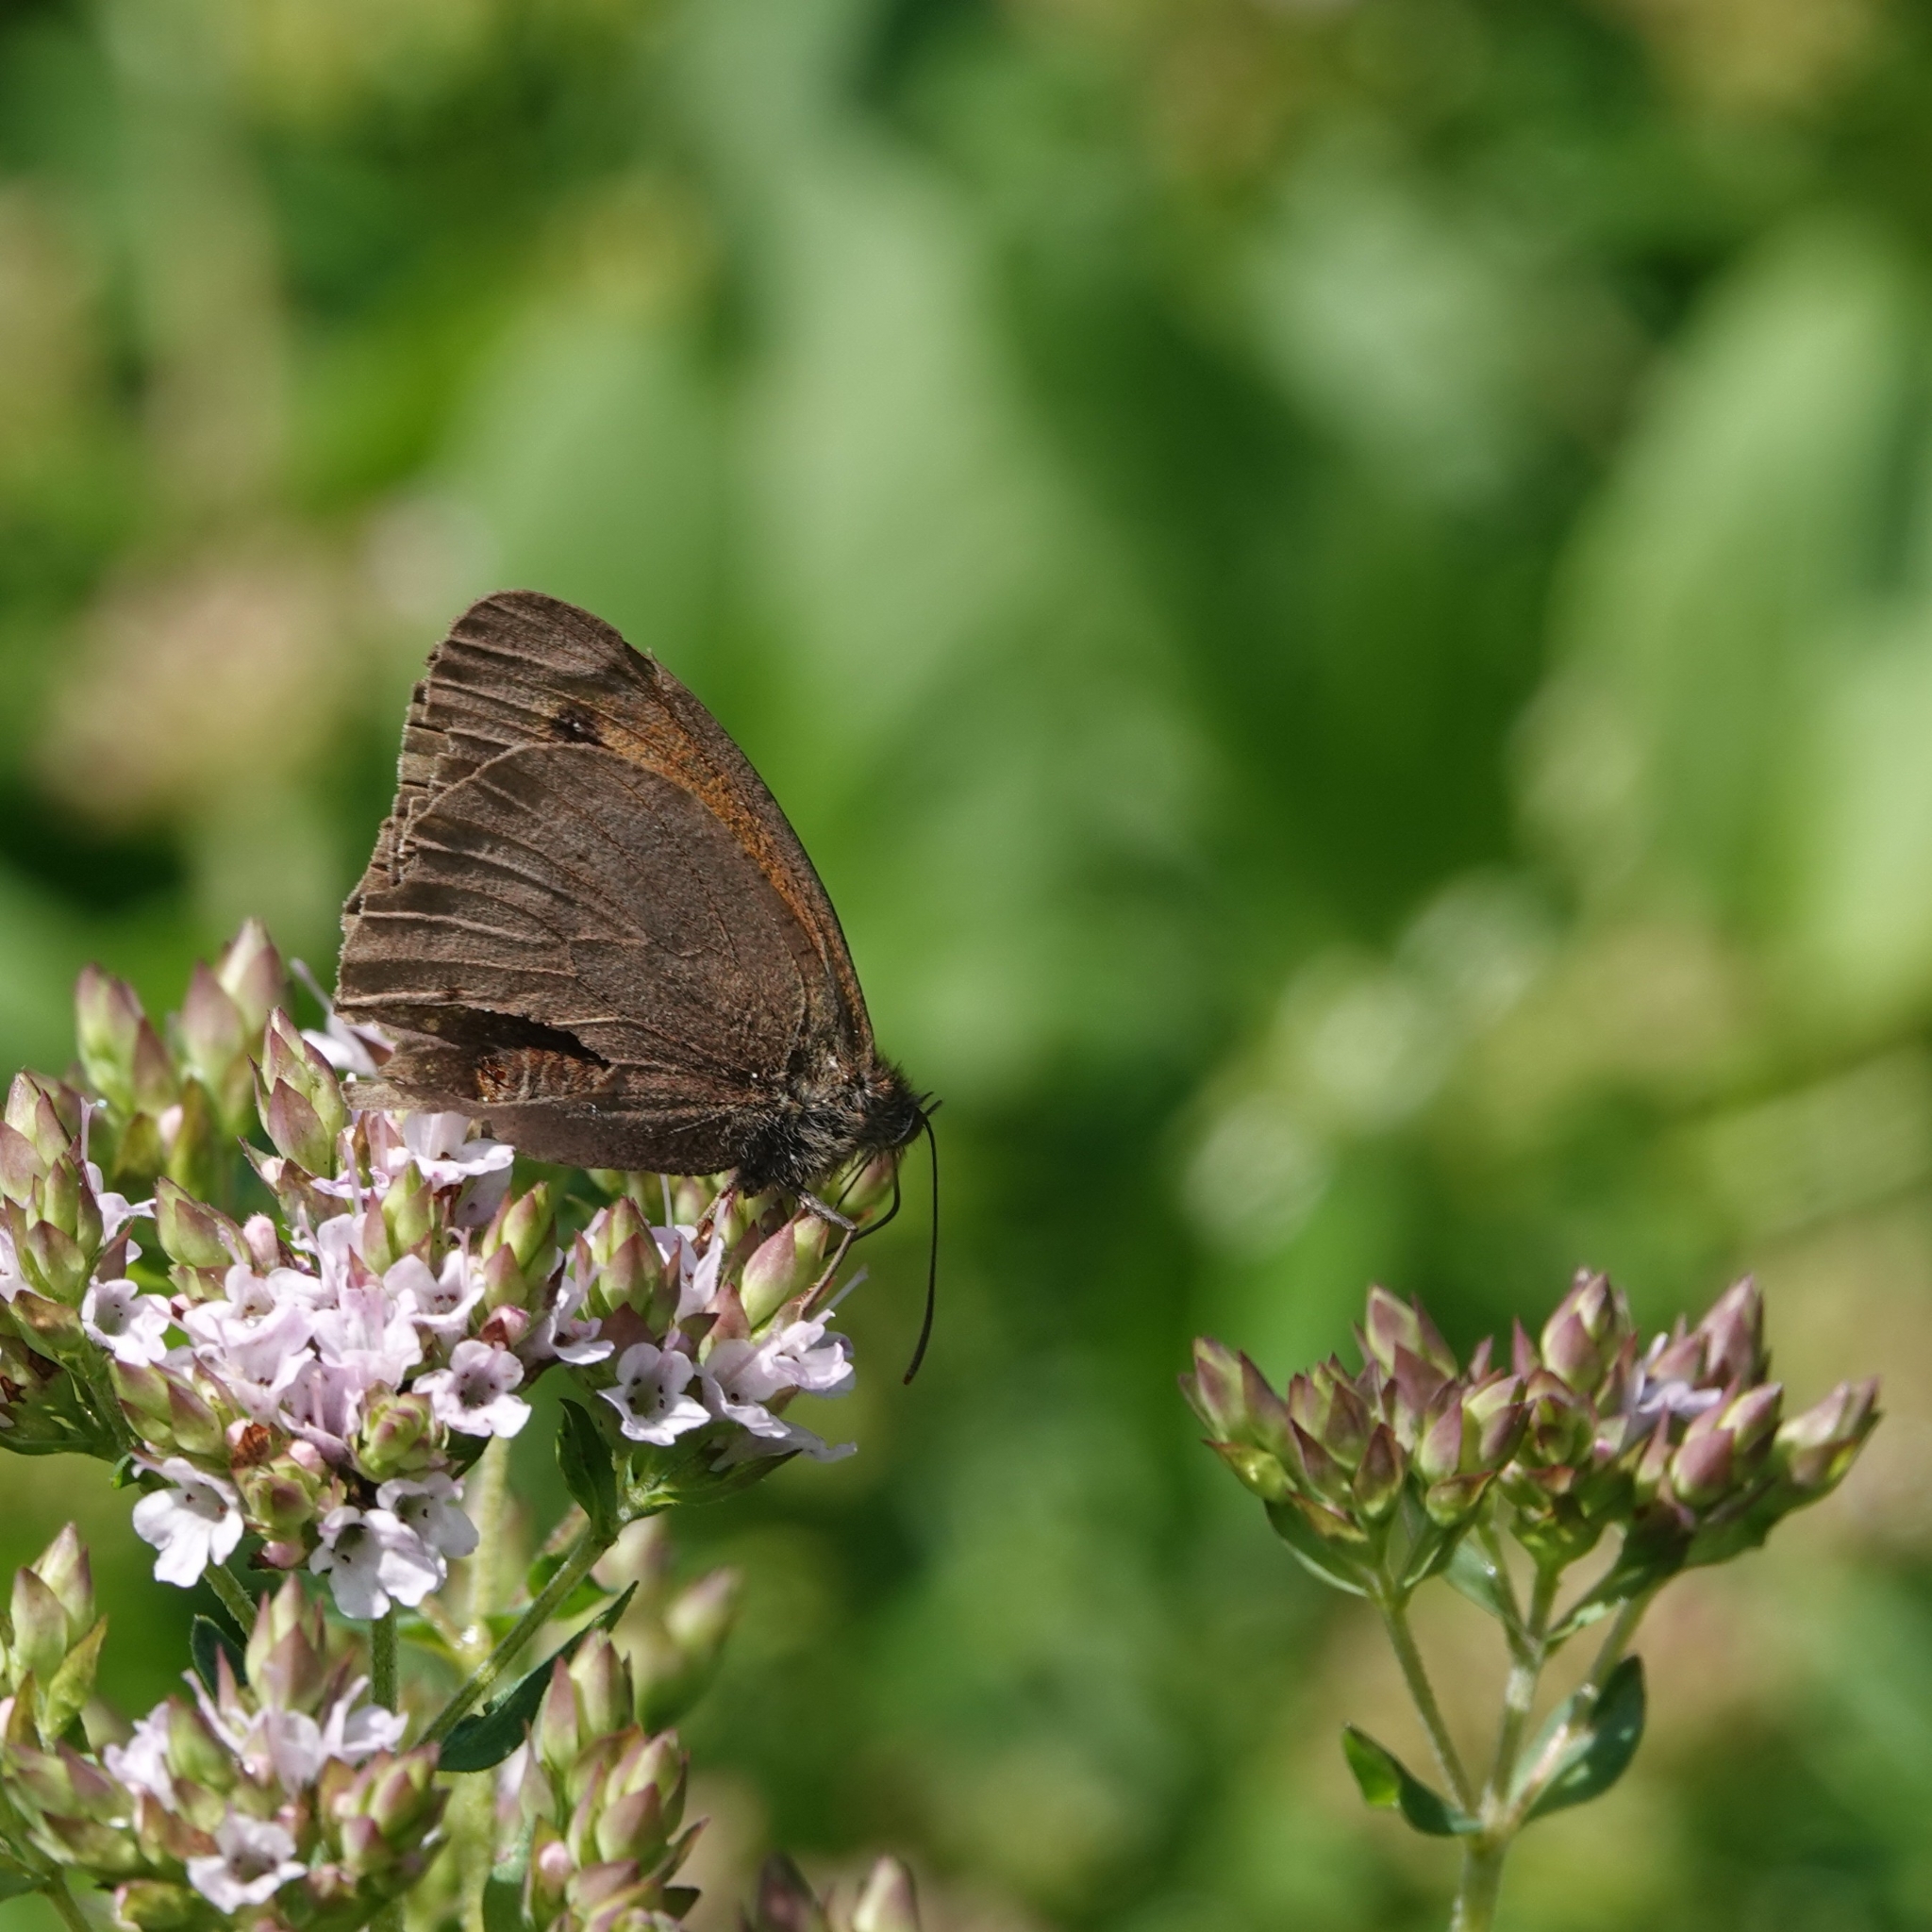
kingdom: Animalia
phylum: Arthropoda
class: Insecta
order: Lepidoptera
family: Nymphalidae
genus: Maniola
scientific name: Maniola jurtina
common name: Meadow brown
